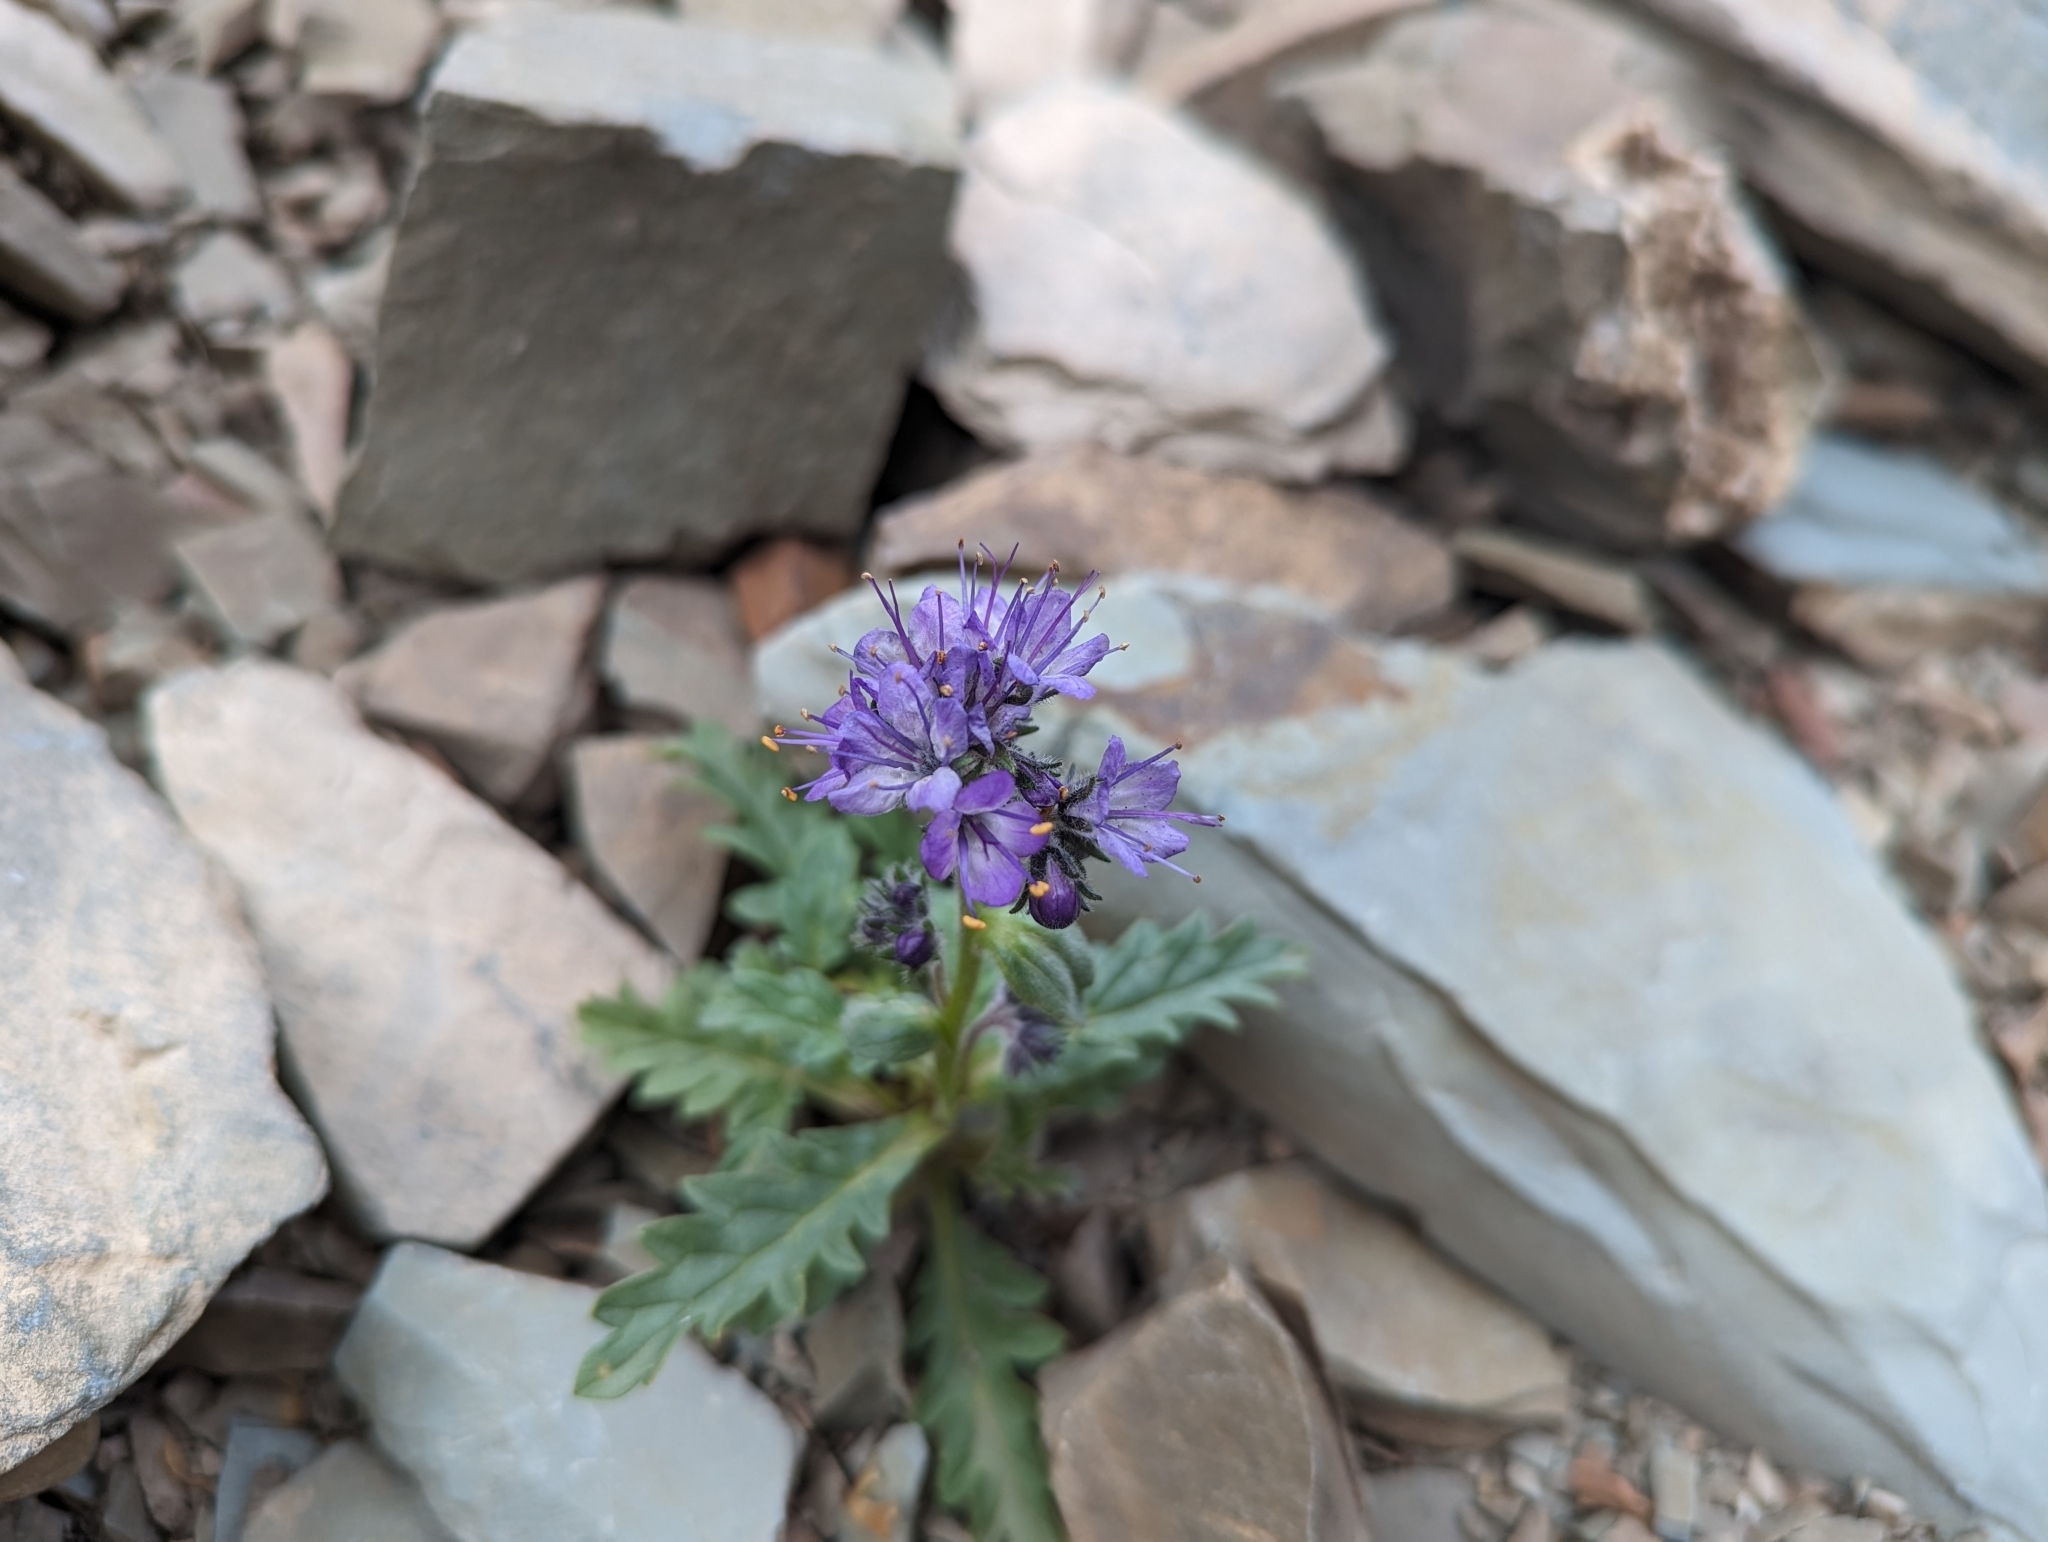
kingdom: Plantae
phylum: Tracheophyta
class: Magnoliopsida
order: Boraginales
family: Hydrophyllaceae
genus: Phacelia
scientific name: Phacelia sericea
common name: Silky phacelia
